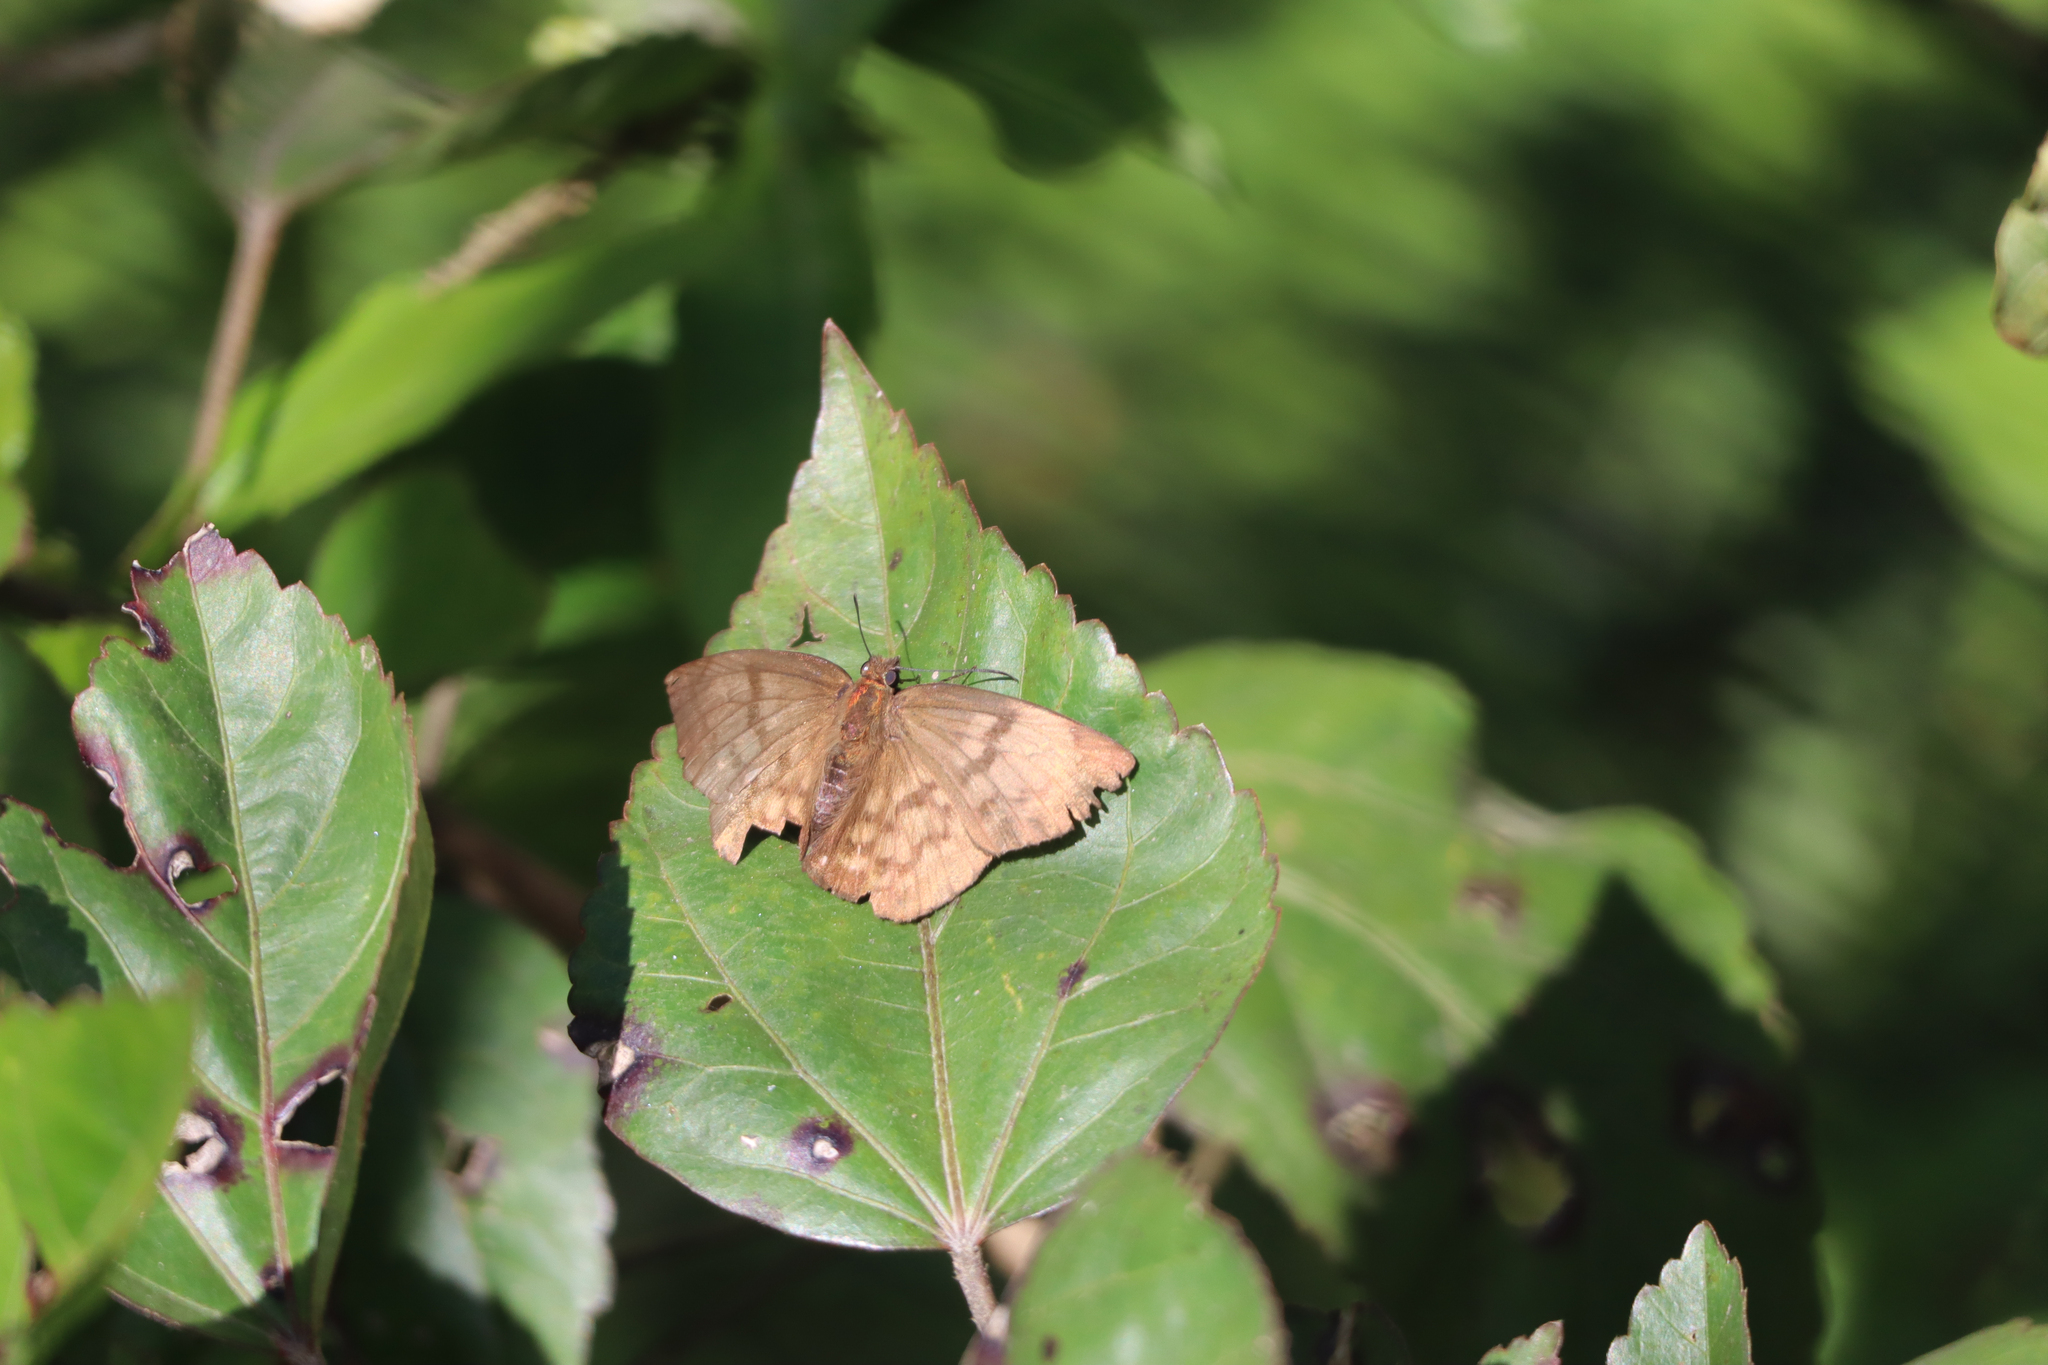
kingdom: Animalia
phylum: Arthropoda
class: Insecta
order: Lepidoptera
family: Hesperiidae
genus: Achlyodes
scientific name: Achlyodes pallida
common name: Pale sicklewing
